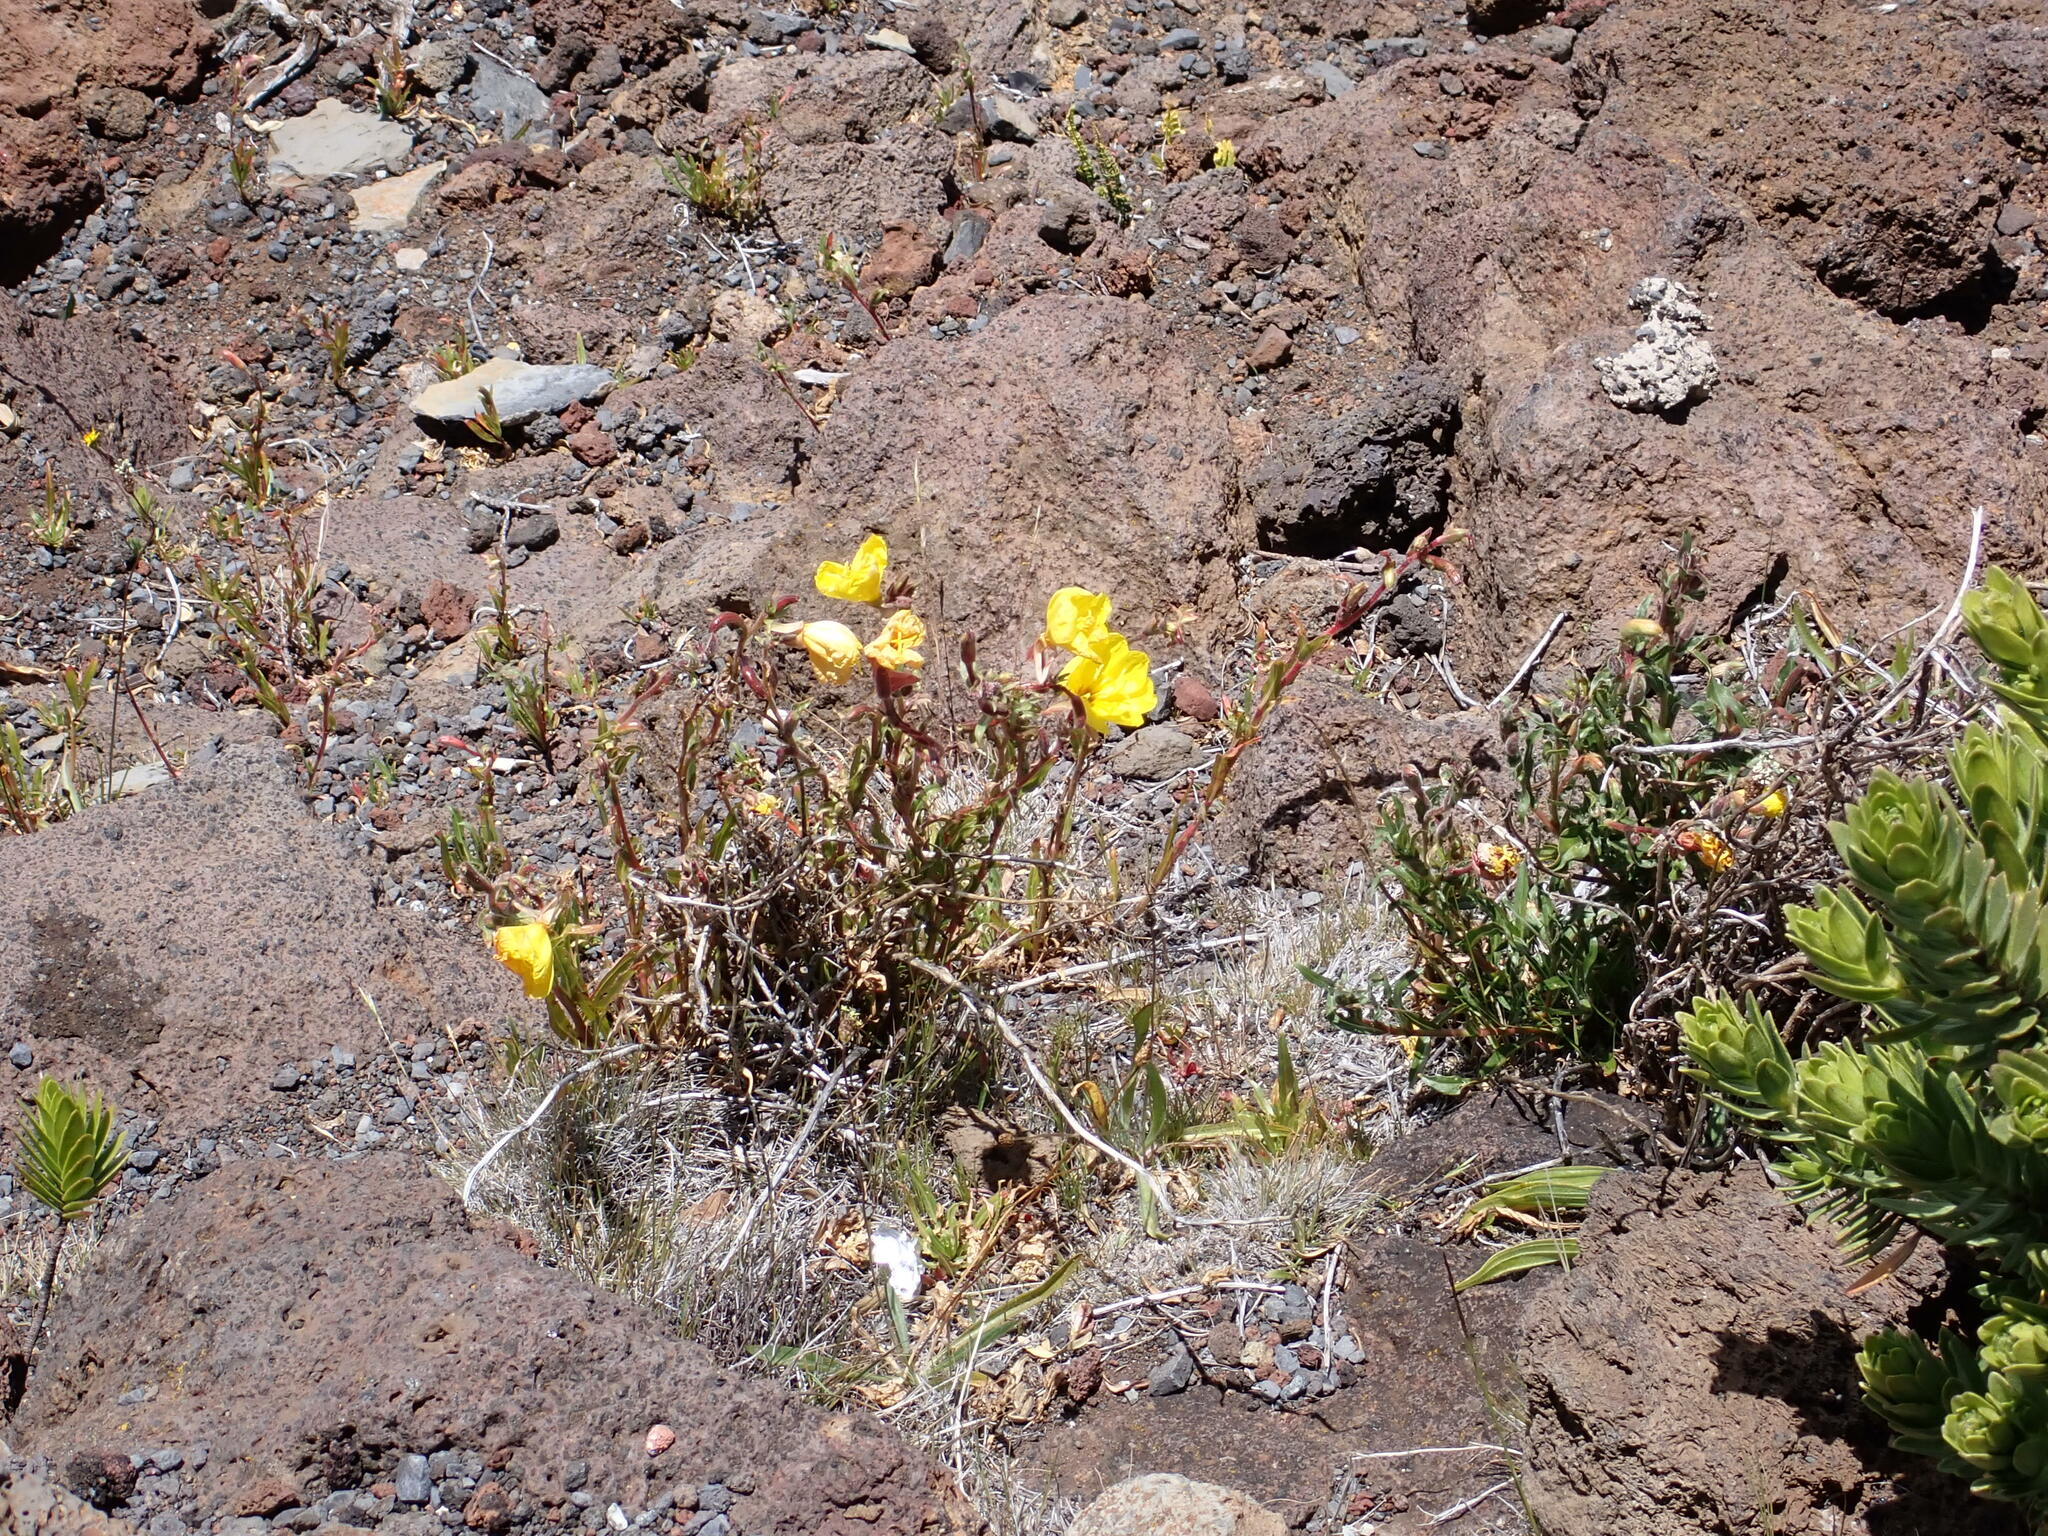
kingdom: Plantae
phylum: Tracheophyta
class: Magnoliopsida
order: Myrtales
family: Onagraceae
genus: Oenothera
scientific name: Oenothera stricta
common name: Fragrant evening-primrose
